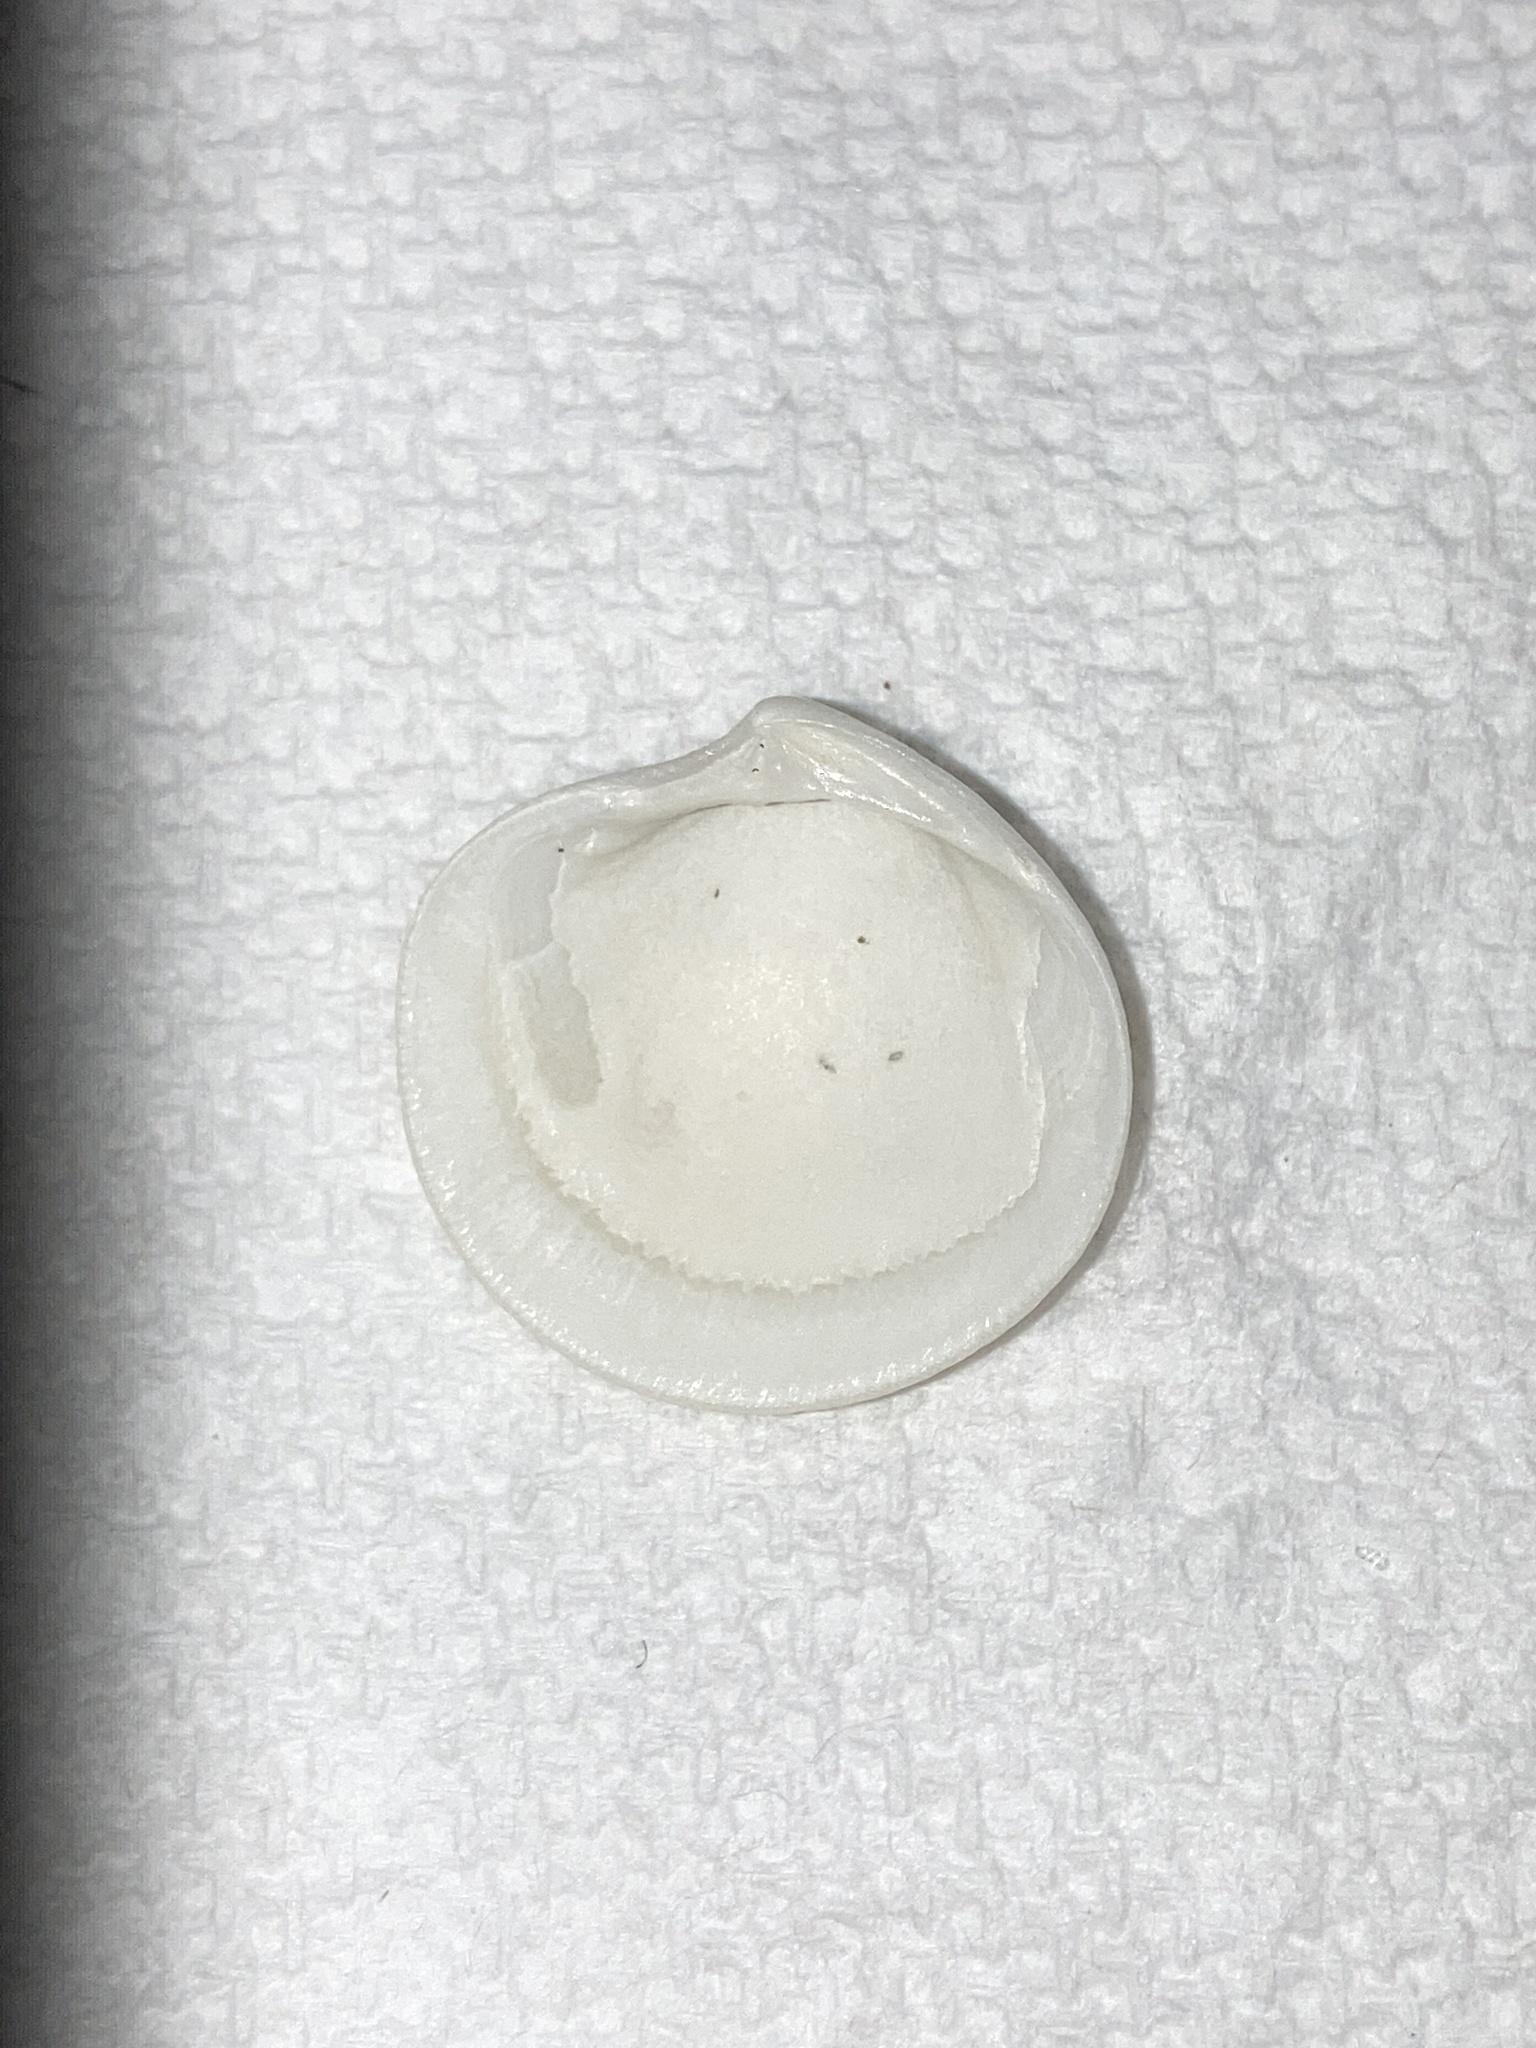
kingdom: Animalia
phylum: Mollusca
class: Bivalvia
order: Lucinida
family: Lucinidae
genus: Callucina
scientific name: Callucina keenae
